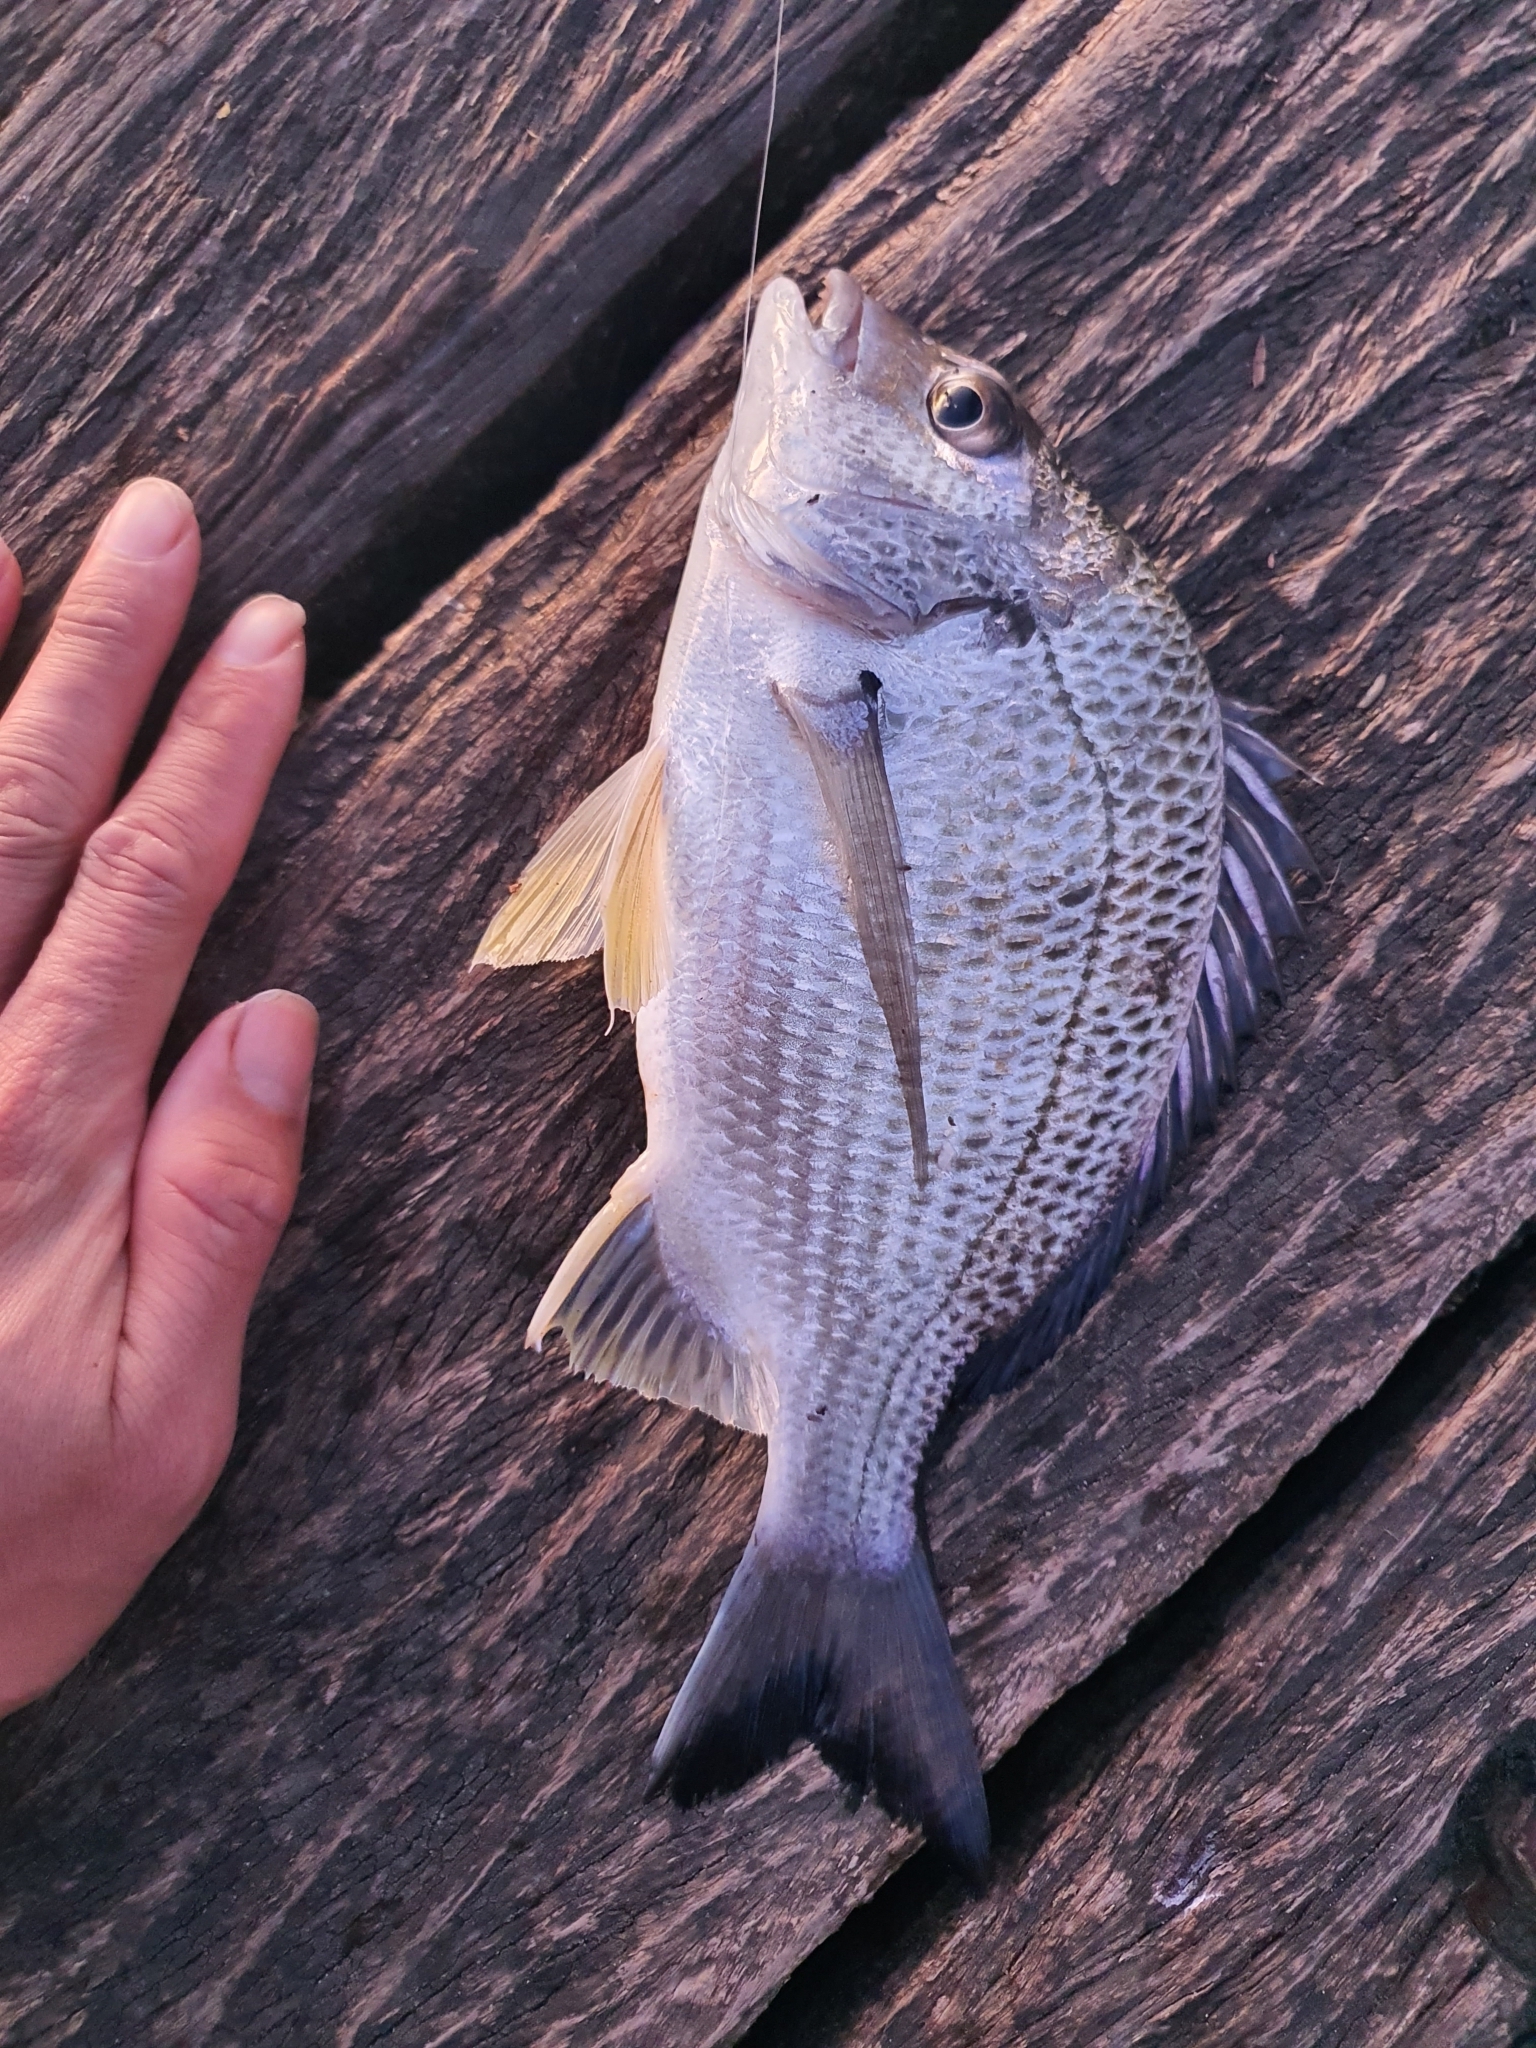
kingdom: Animalia
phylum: Chordata
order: Perciformes
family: Sparidae
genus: Acanthopagrus
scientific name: Acanthopagrus australis
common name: Surf bream
